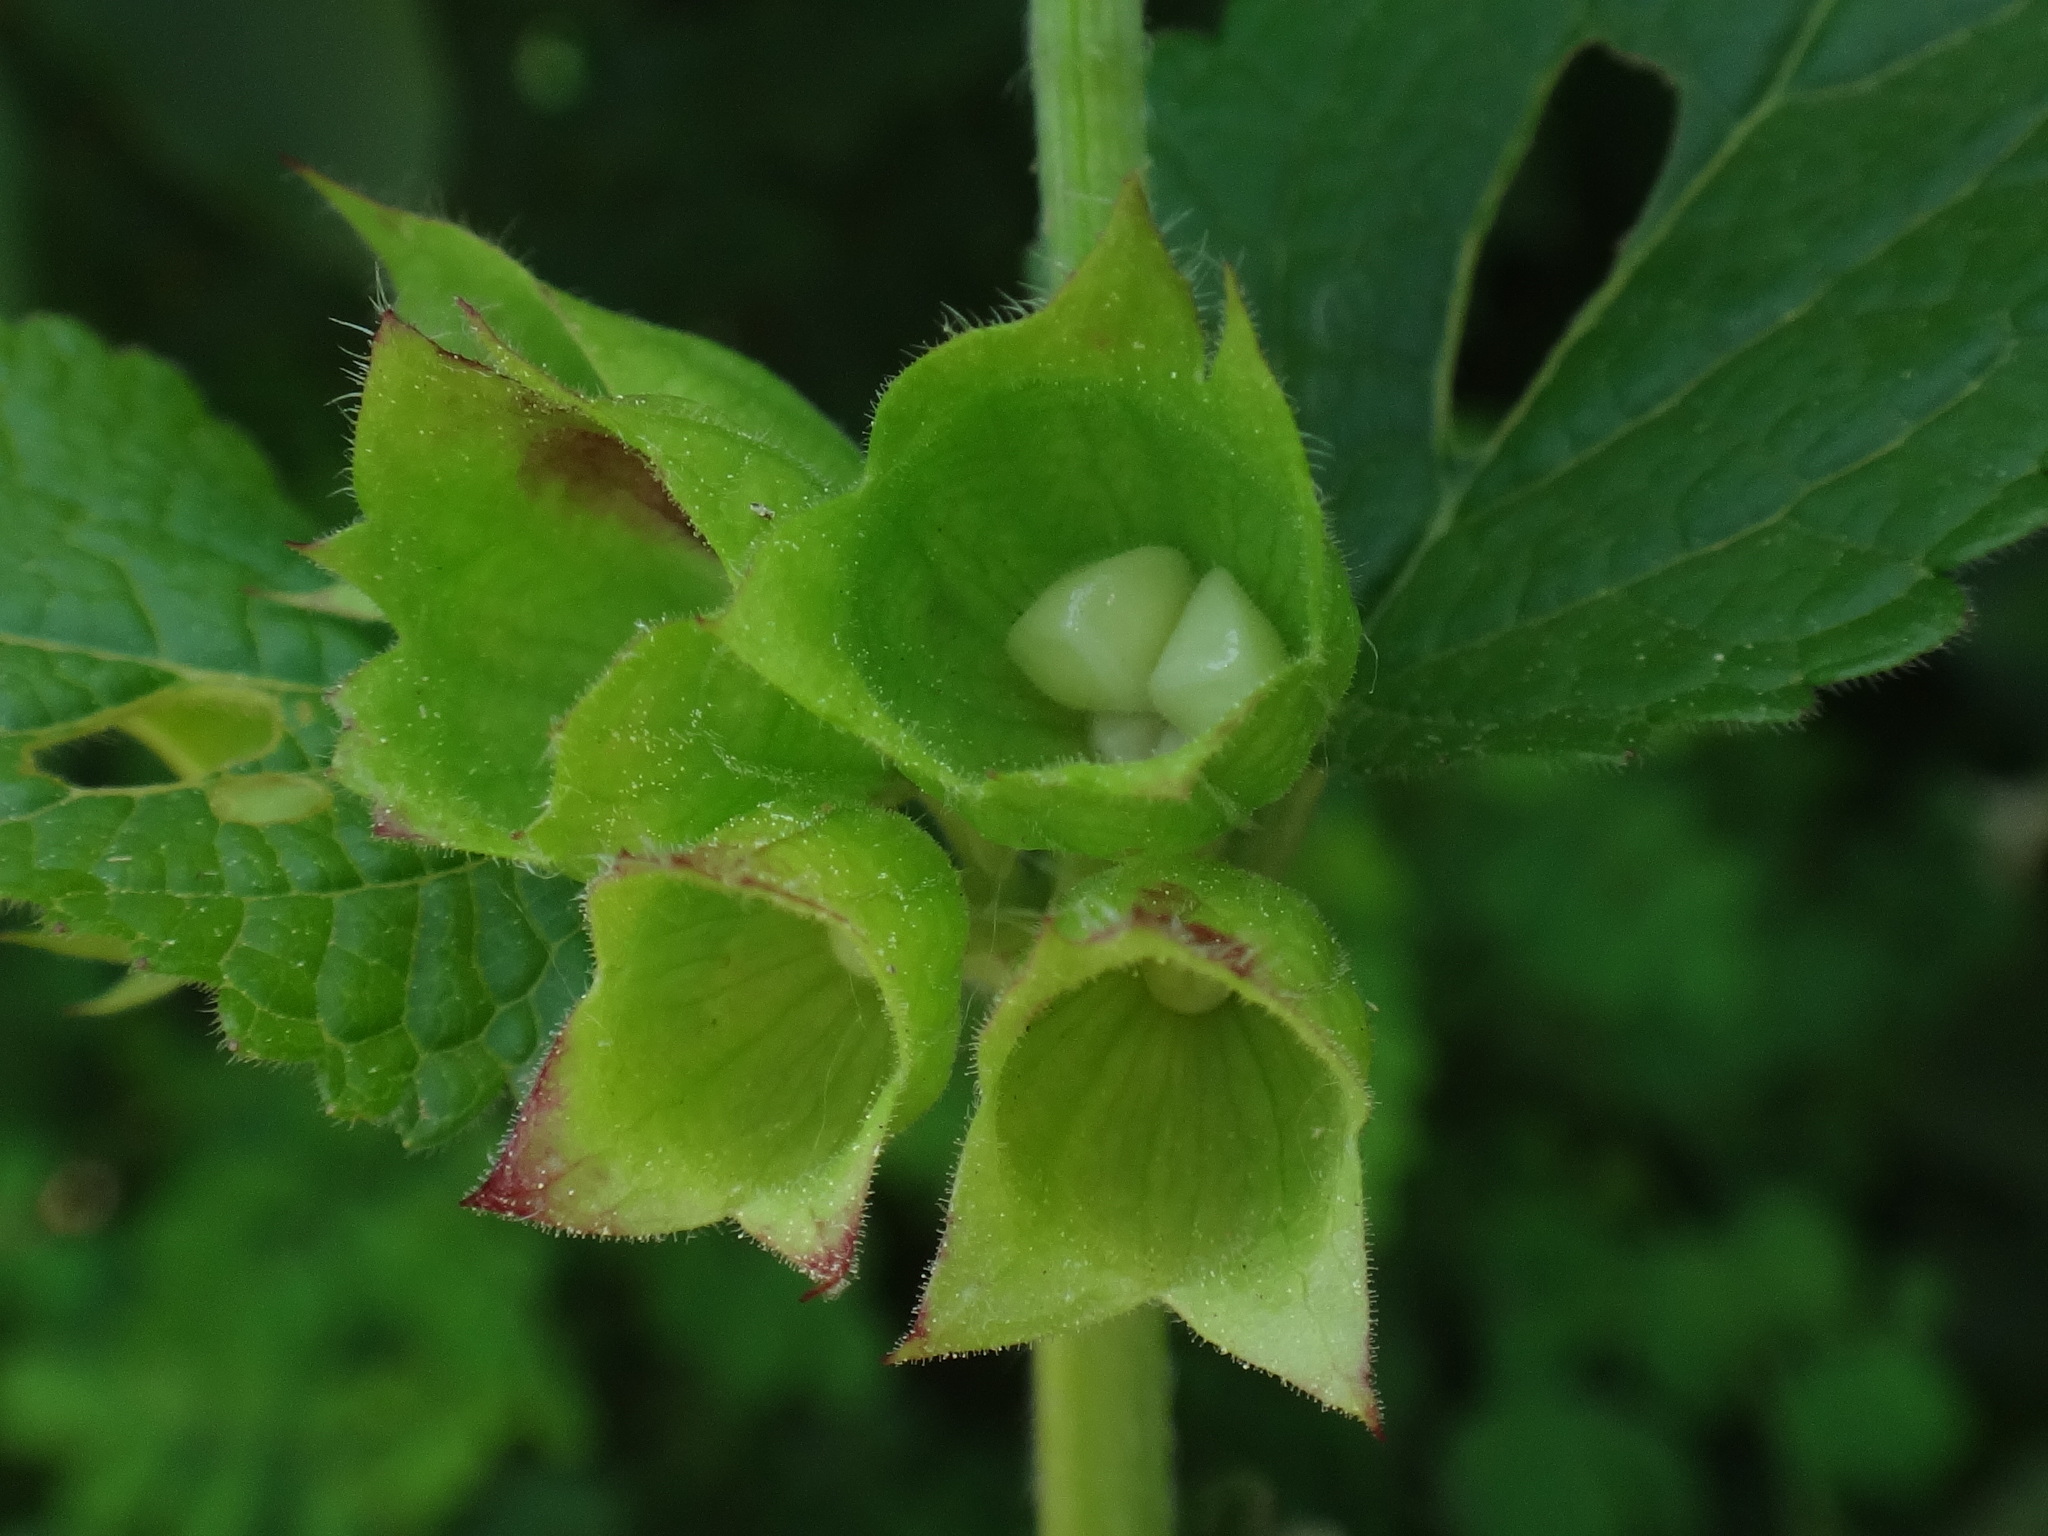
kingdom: Plantae
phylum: Tracheophyta
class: Magnoliopsida
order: Lamiales
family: Lamiaceae
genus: Melittis
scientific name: Melittis melissophyllum
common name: Bastard balm
